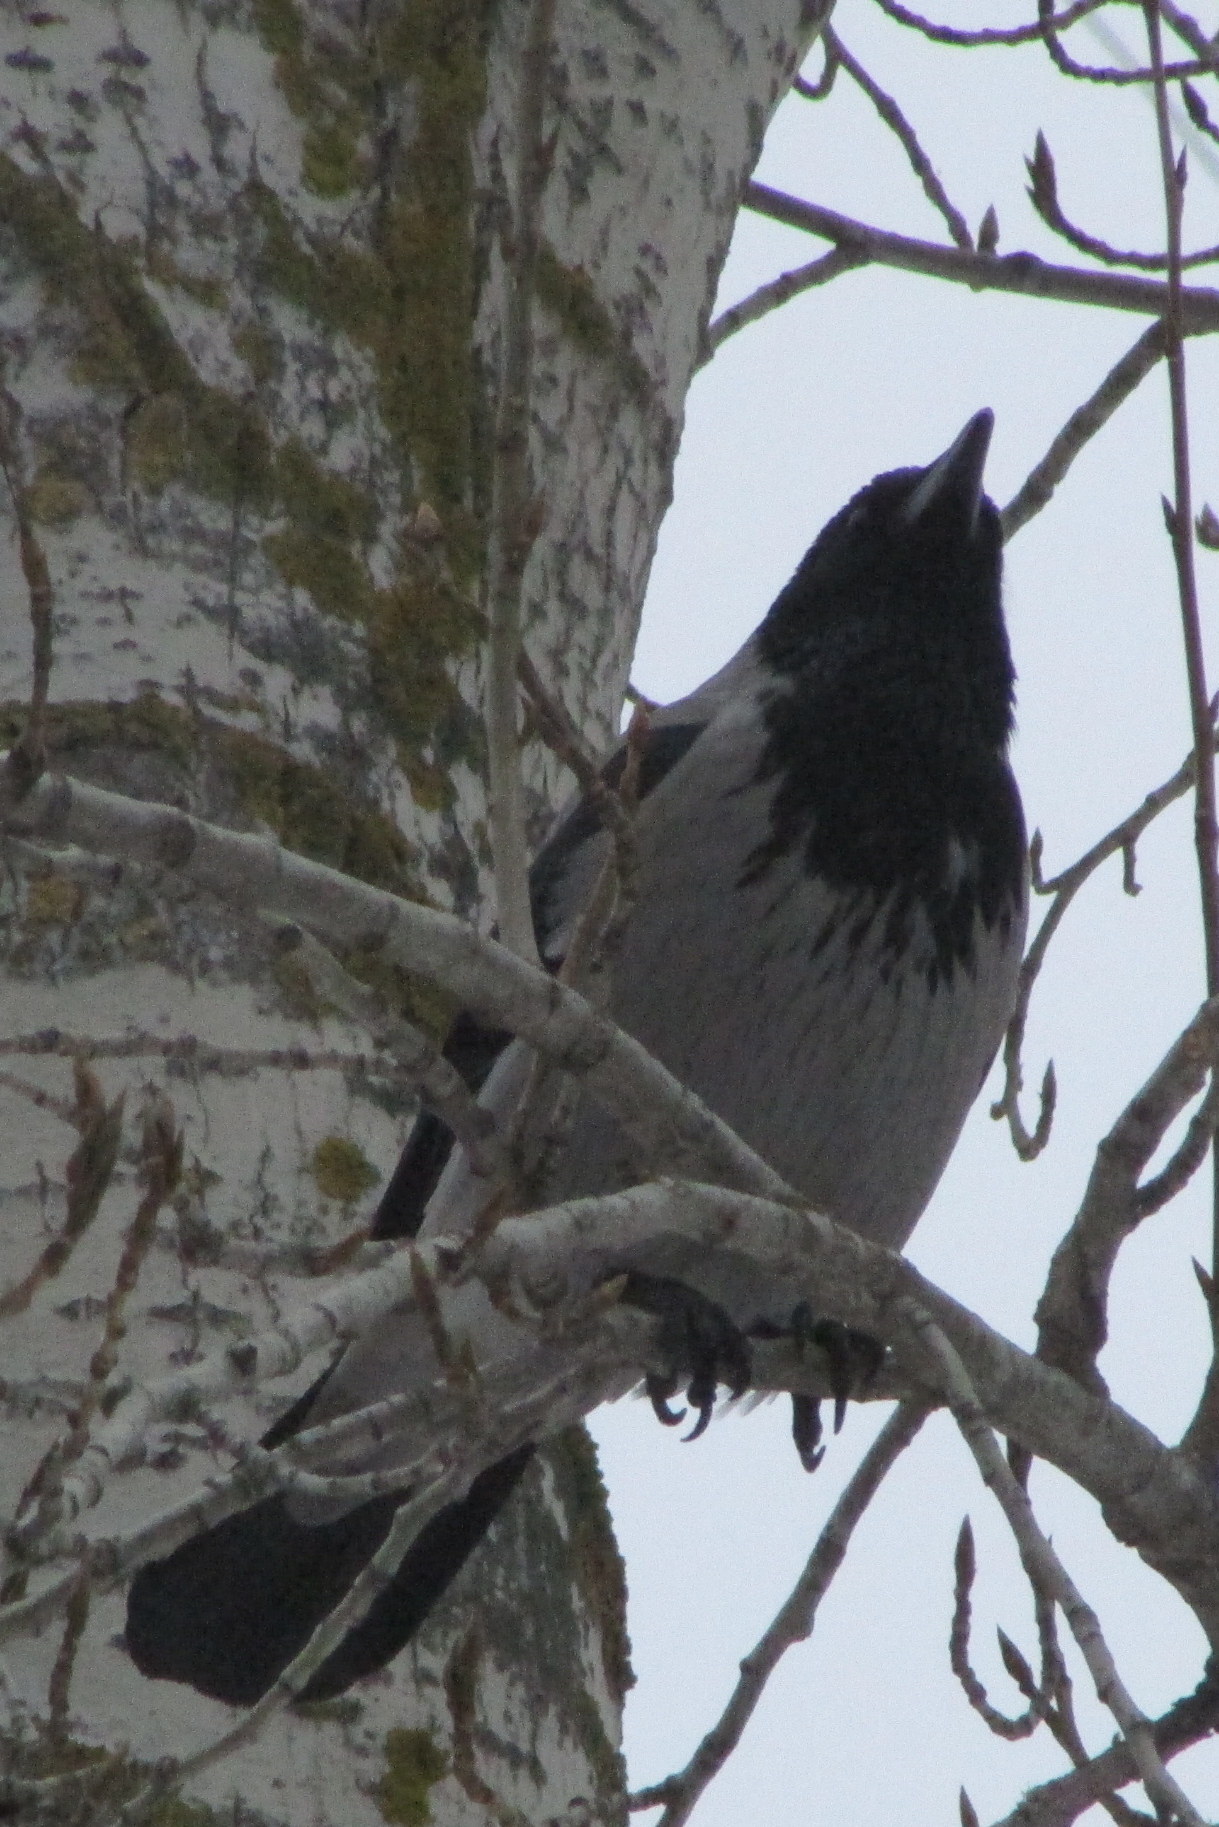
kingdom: Animalia
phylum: Chordata
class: Aves
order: Passeriformes
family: Corvidae
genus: Corvus
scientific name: Corvus cornix
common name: Hooded crow
